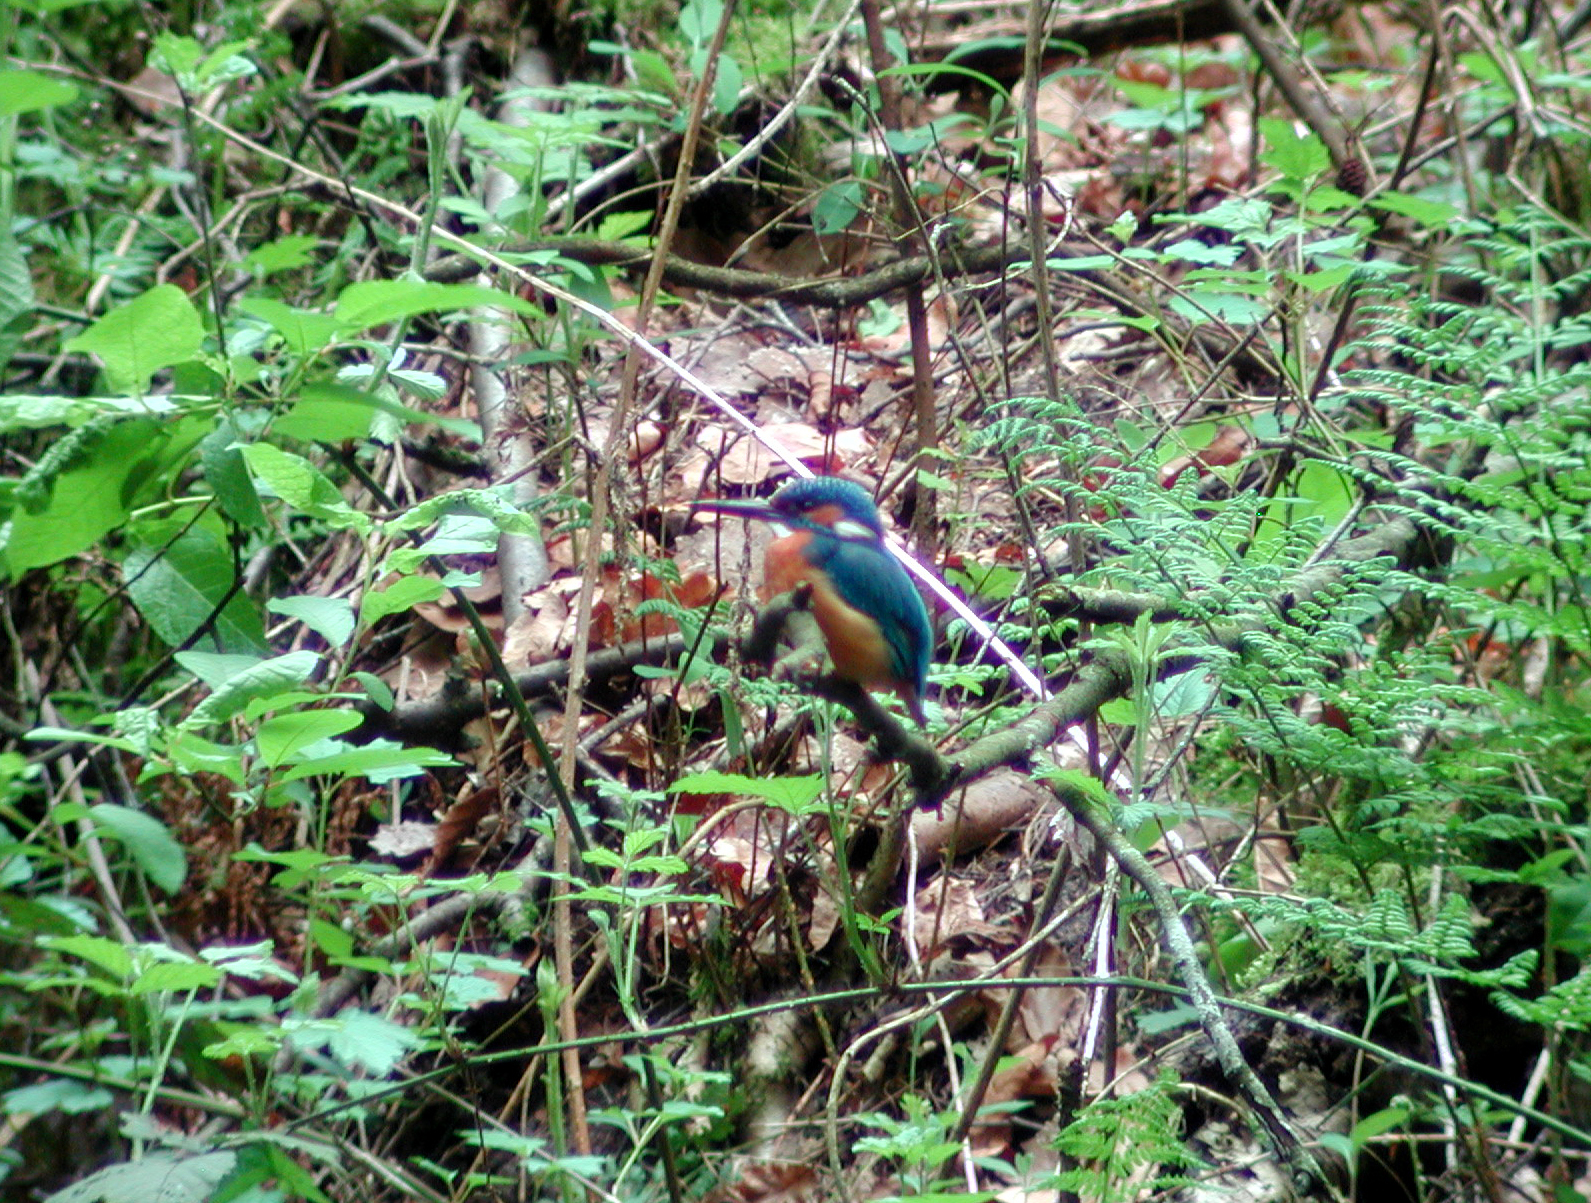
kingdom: Animalia
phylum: Chordata
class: Aves
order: Coraciiformes
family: Alcedinidae
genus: Alcedo
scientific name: Alcedo atthis
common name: Common kingfisher
